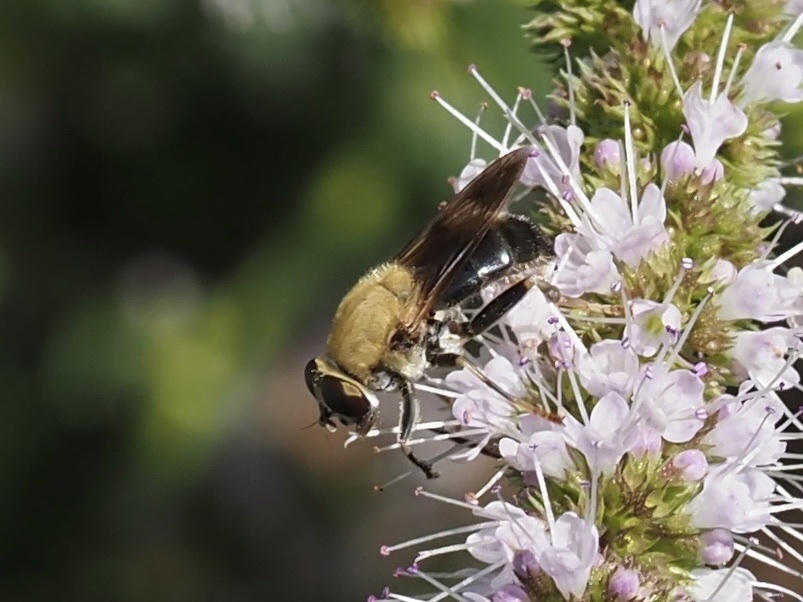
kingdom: Animalia
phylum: Arthropoda
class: Insecta
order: Diptera
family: Syrphidae
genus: Pterallastes
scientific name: Pterallastes thoracicus
